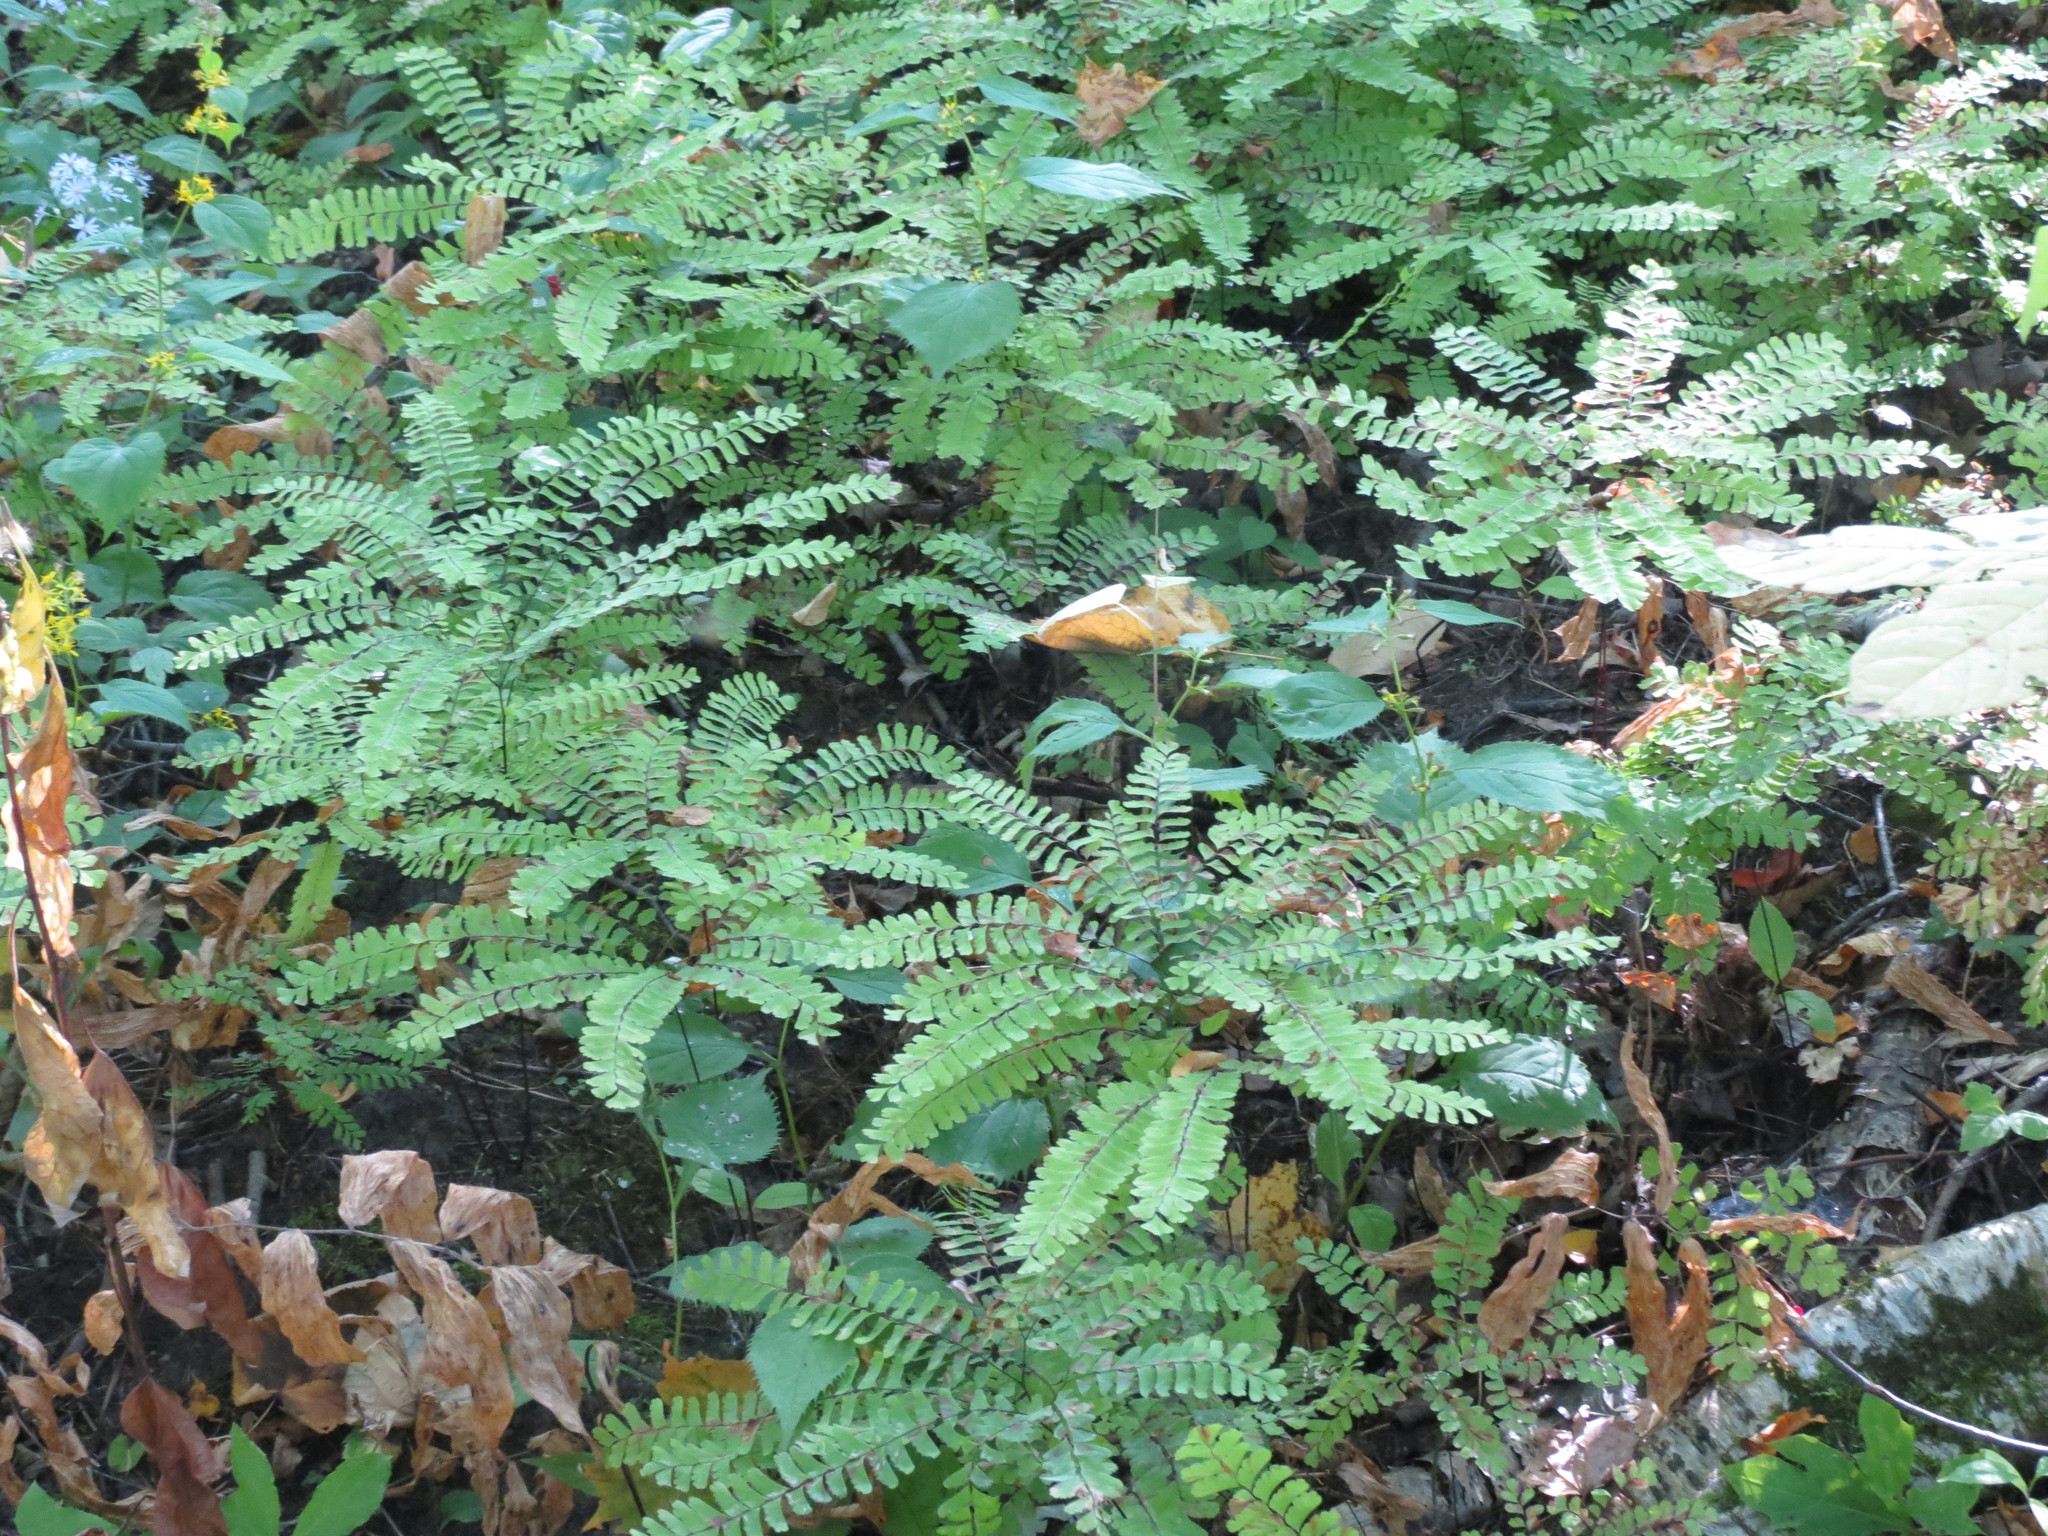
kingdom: Plantae
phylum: Tracheophyta
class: Polypodiopsida
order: Polypodiales
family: Pteridaceae
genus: Adiantum
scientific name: Adiantum pedatum
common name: Five-finger fern
